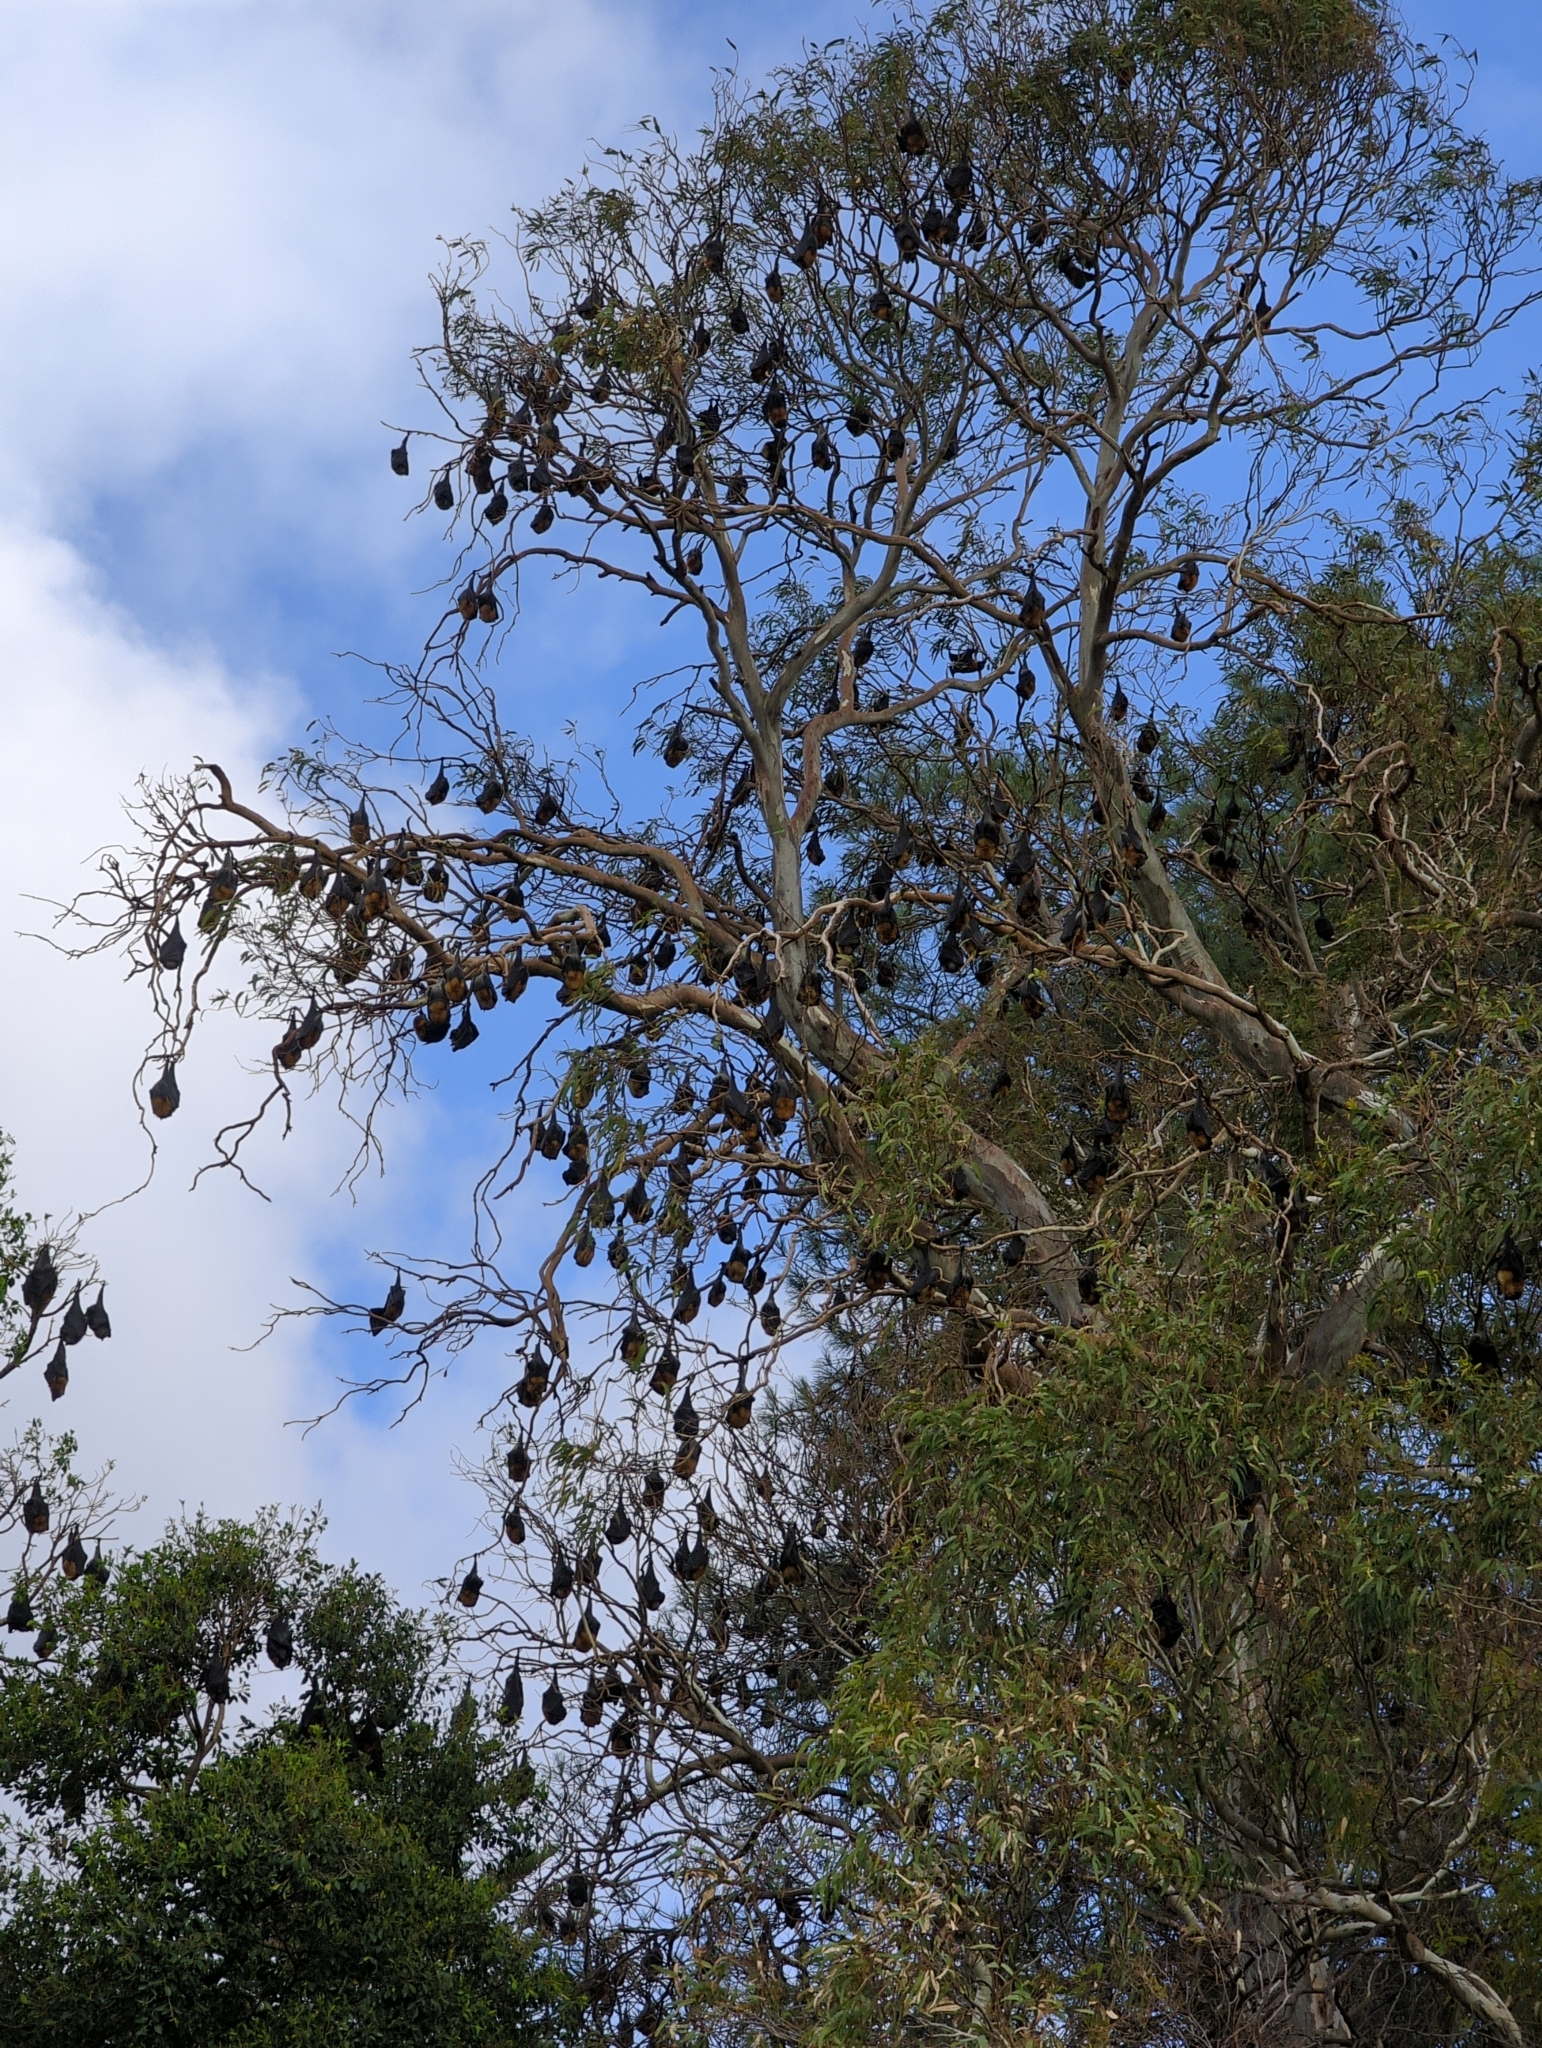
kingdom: Animalia
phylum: Chordata
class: Mammalia
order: Chiroptera
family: Pteropodidae
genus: Pteropus
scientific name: Pteropus poliocephalus
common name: Gray-headed flying fox
